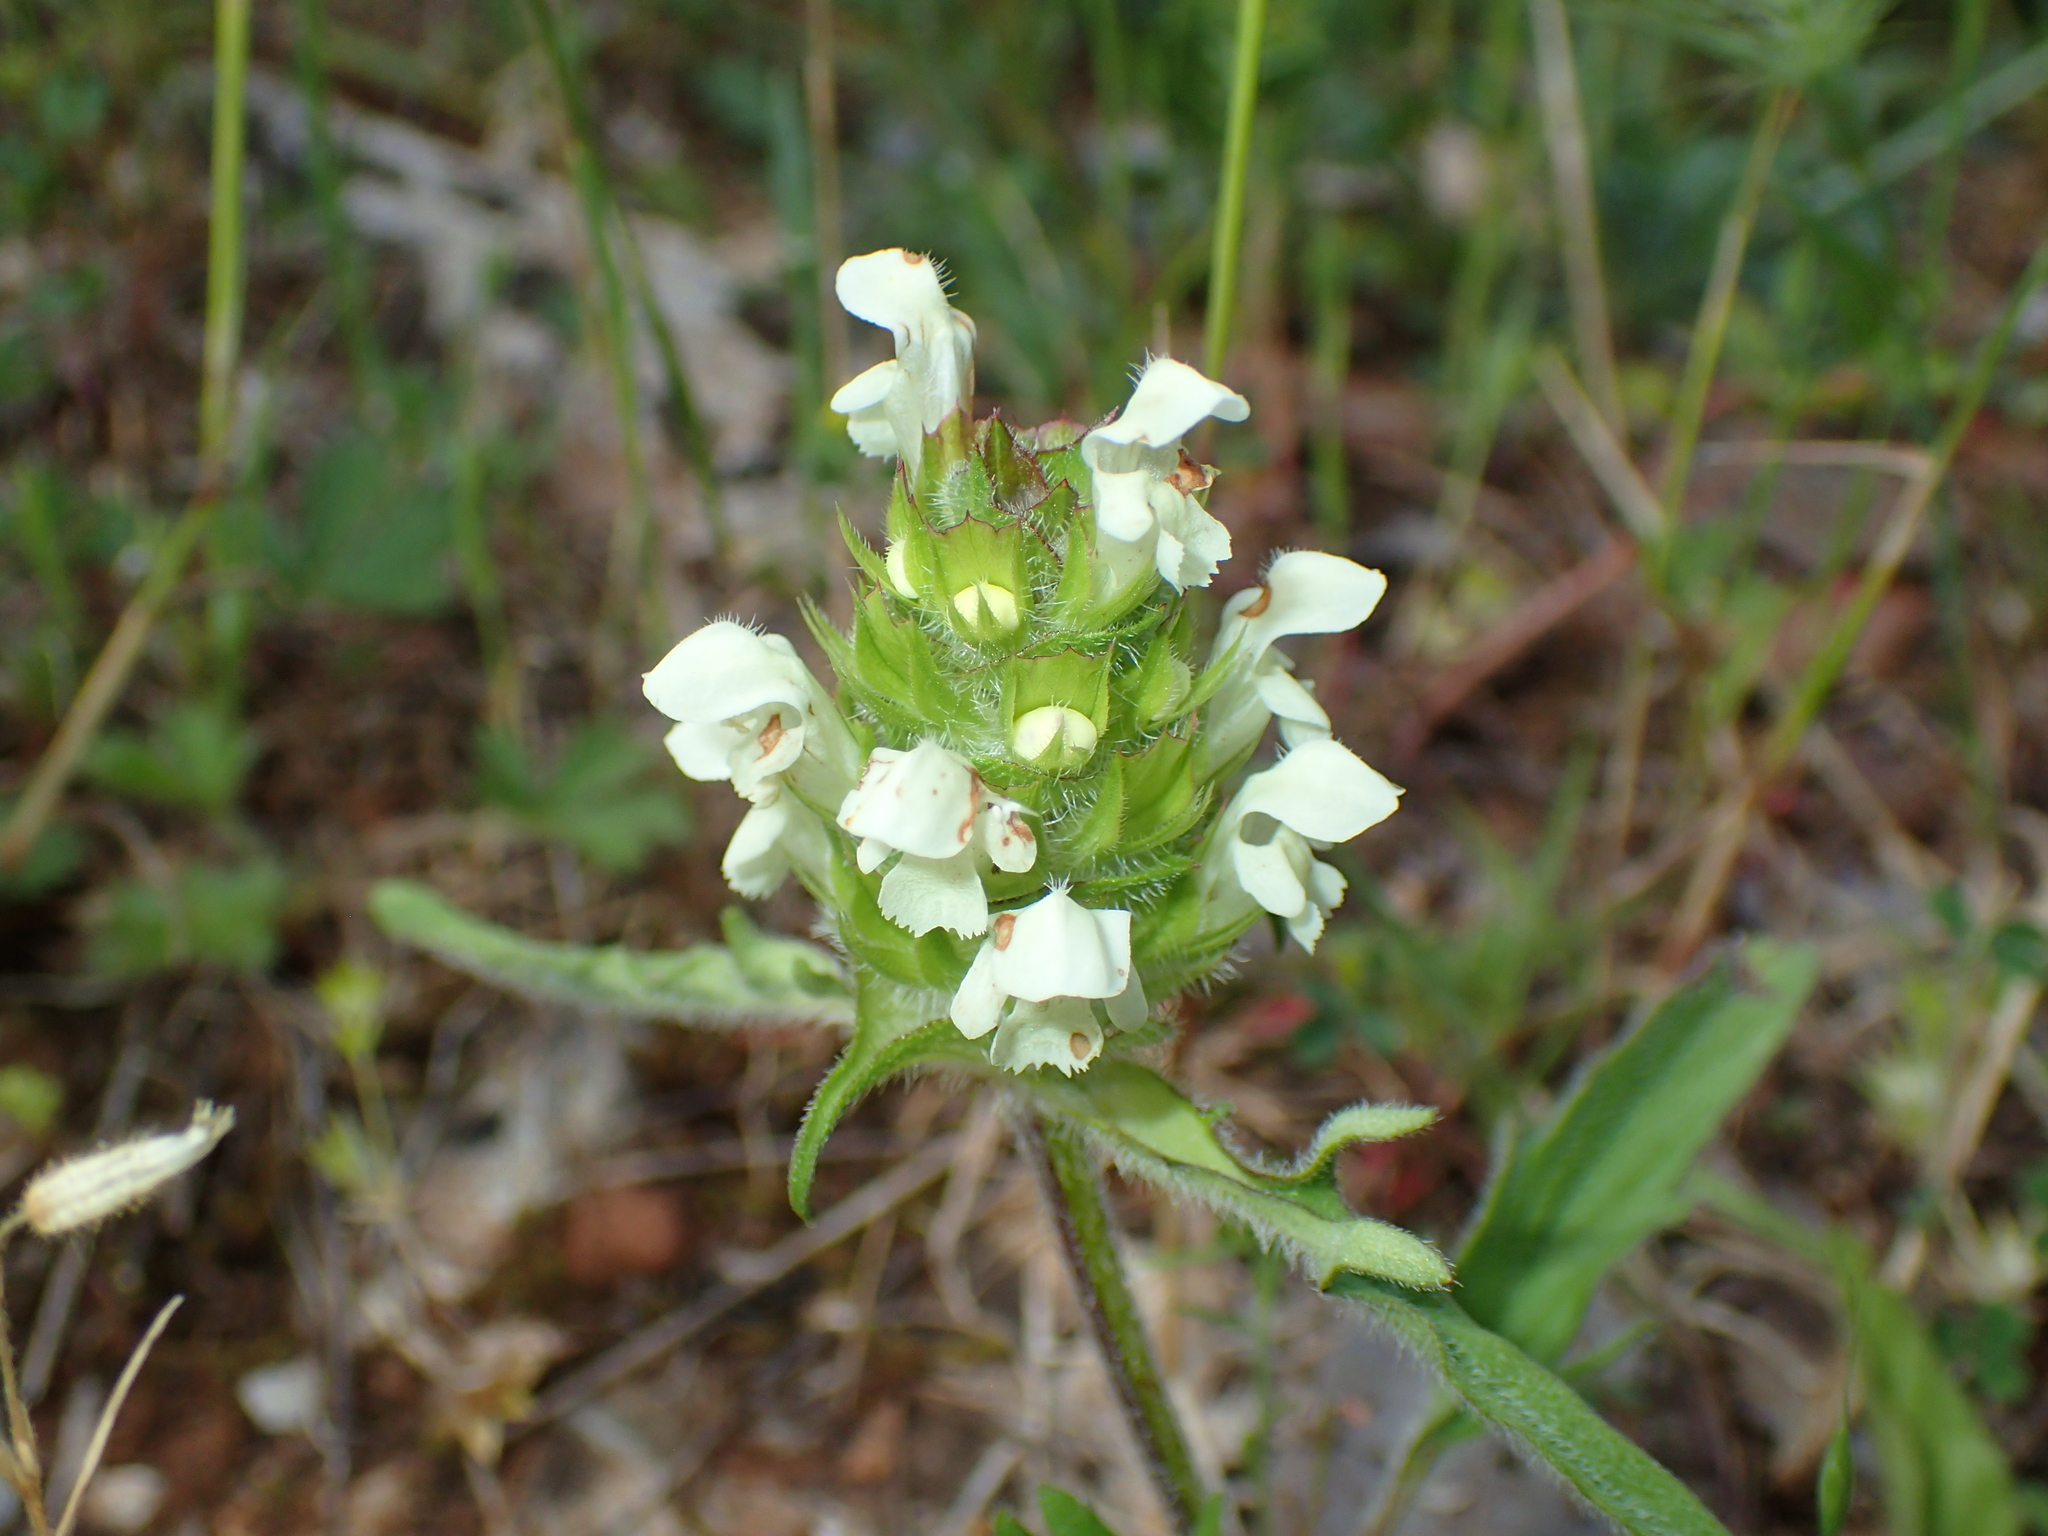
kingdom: Plantae
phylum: Tracheophyta
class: Magnoliopsida
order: Lamiales
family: Lamiaceae
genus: Prunella
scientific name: Prunella laciniata
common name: Cut-leaved selfheal
